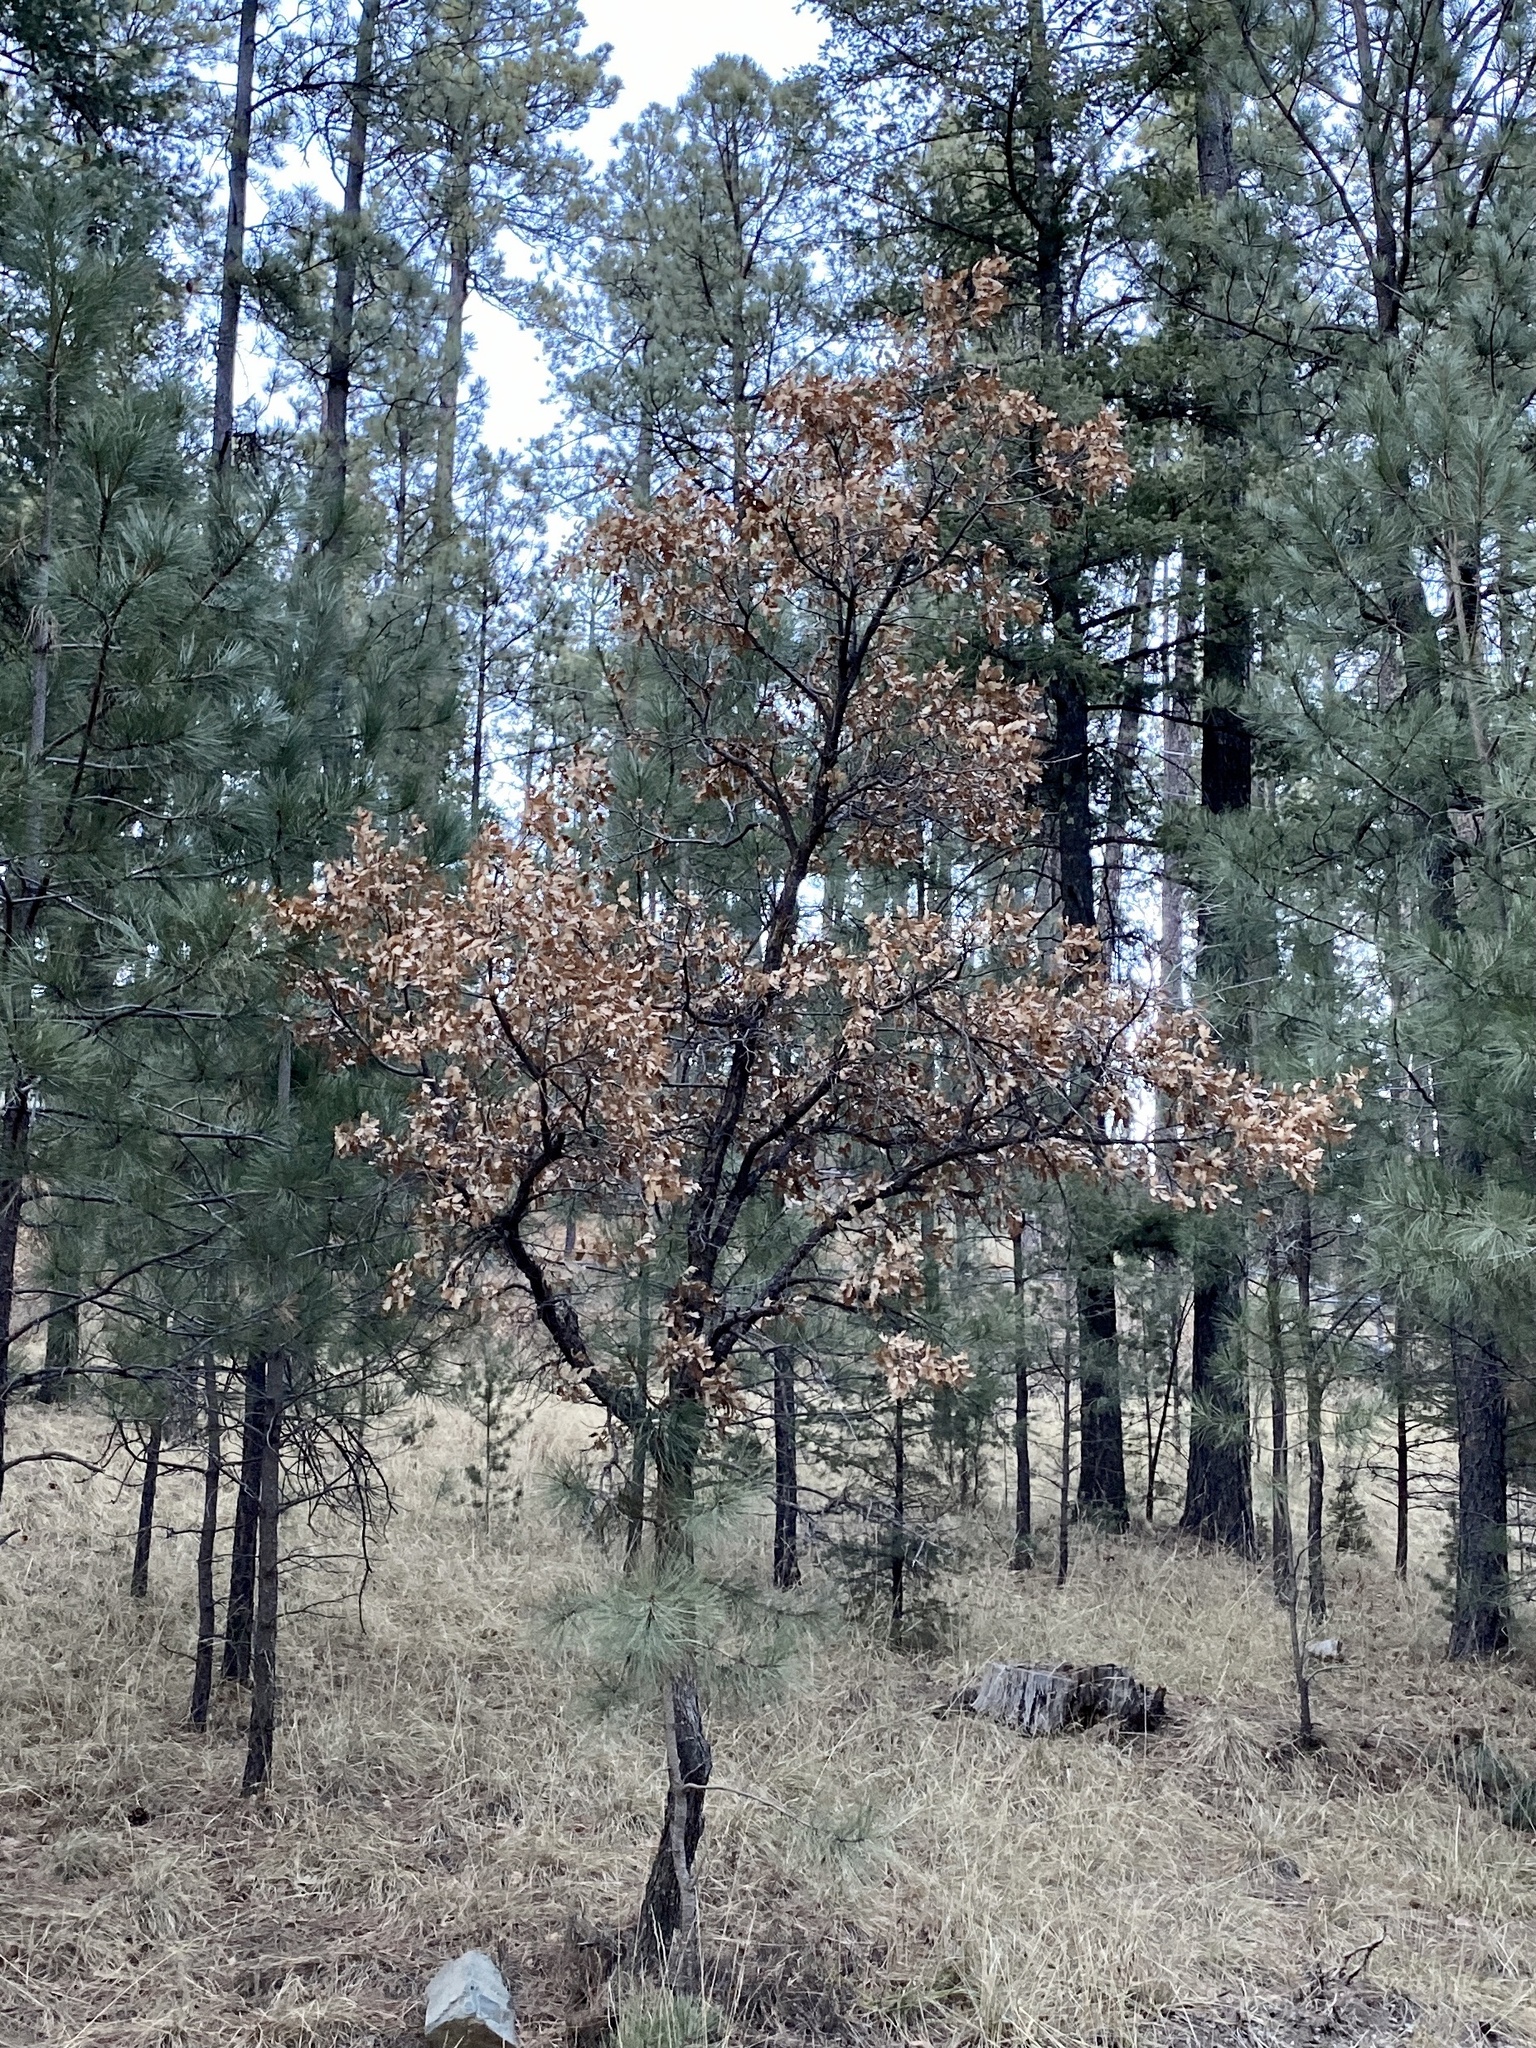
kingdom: Plantae
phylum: Tracheophyta
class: Magnoliopsida
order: Fagales
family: Fagaceae
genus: Quercus
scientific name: Quercus gambelii
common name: Gambel oak
